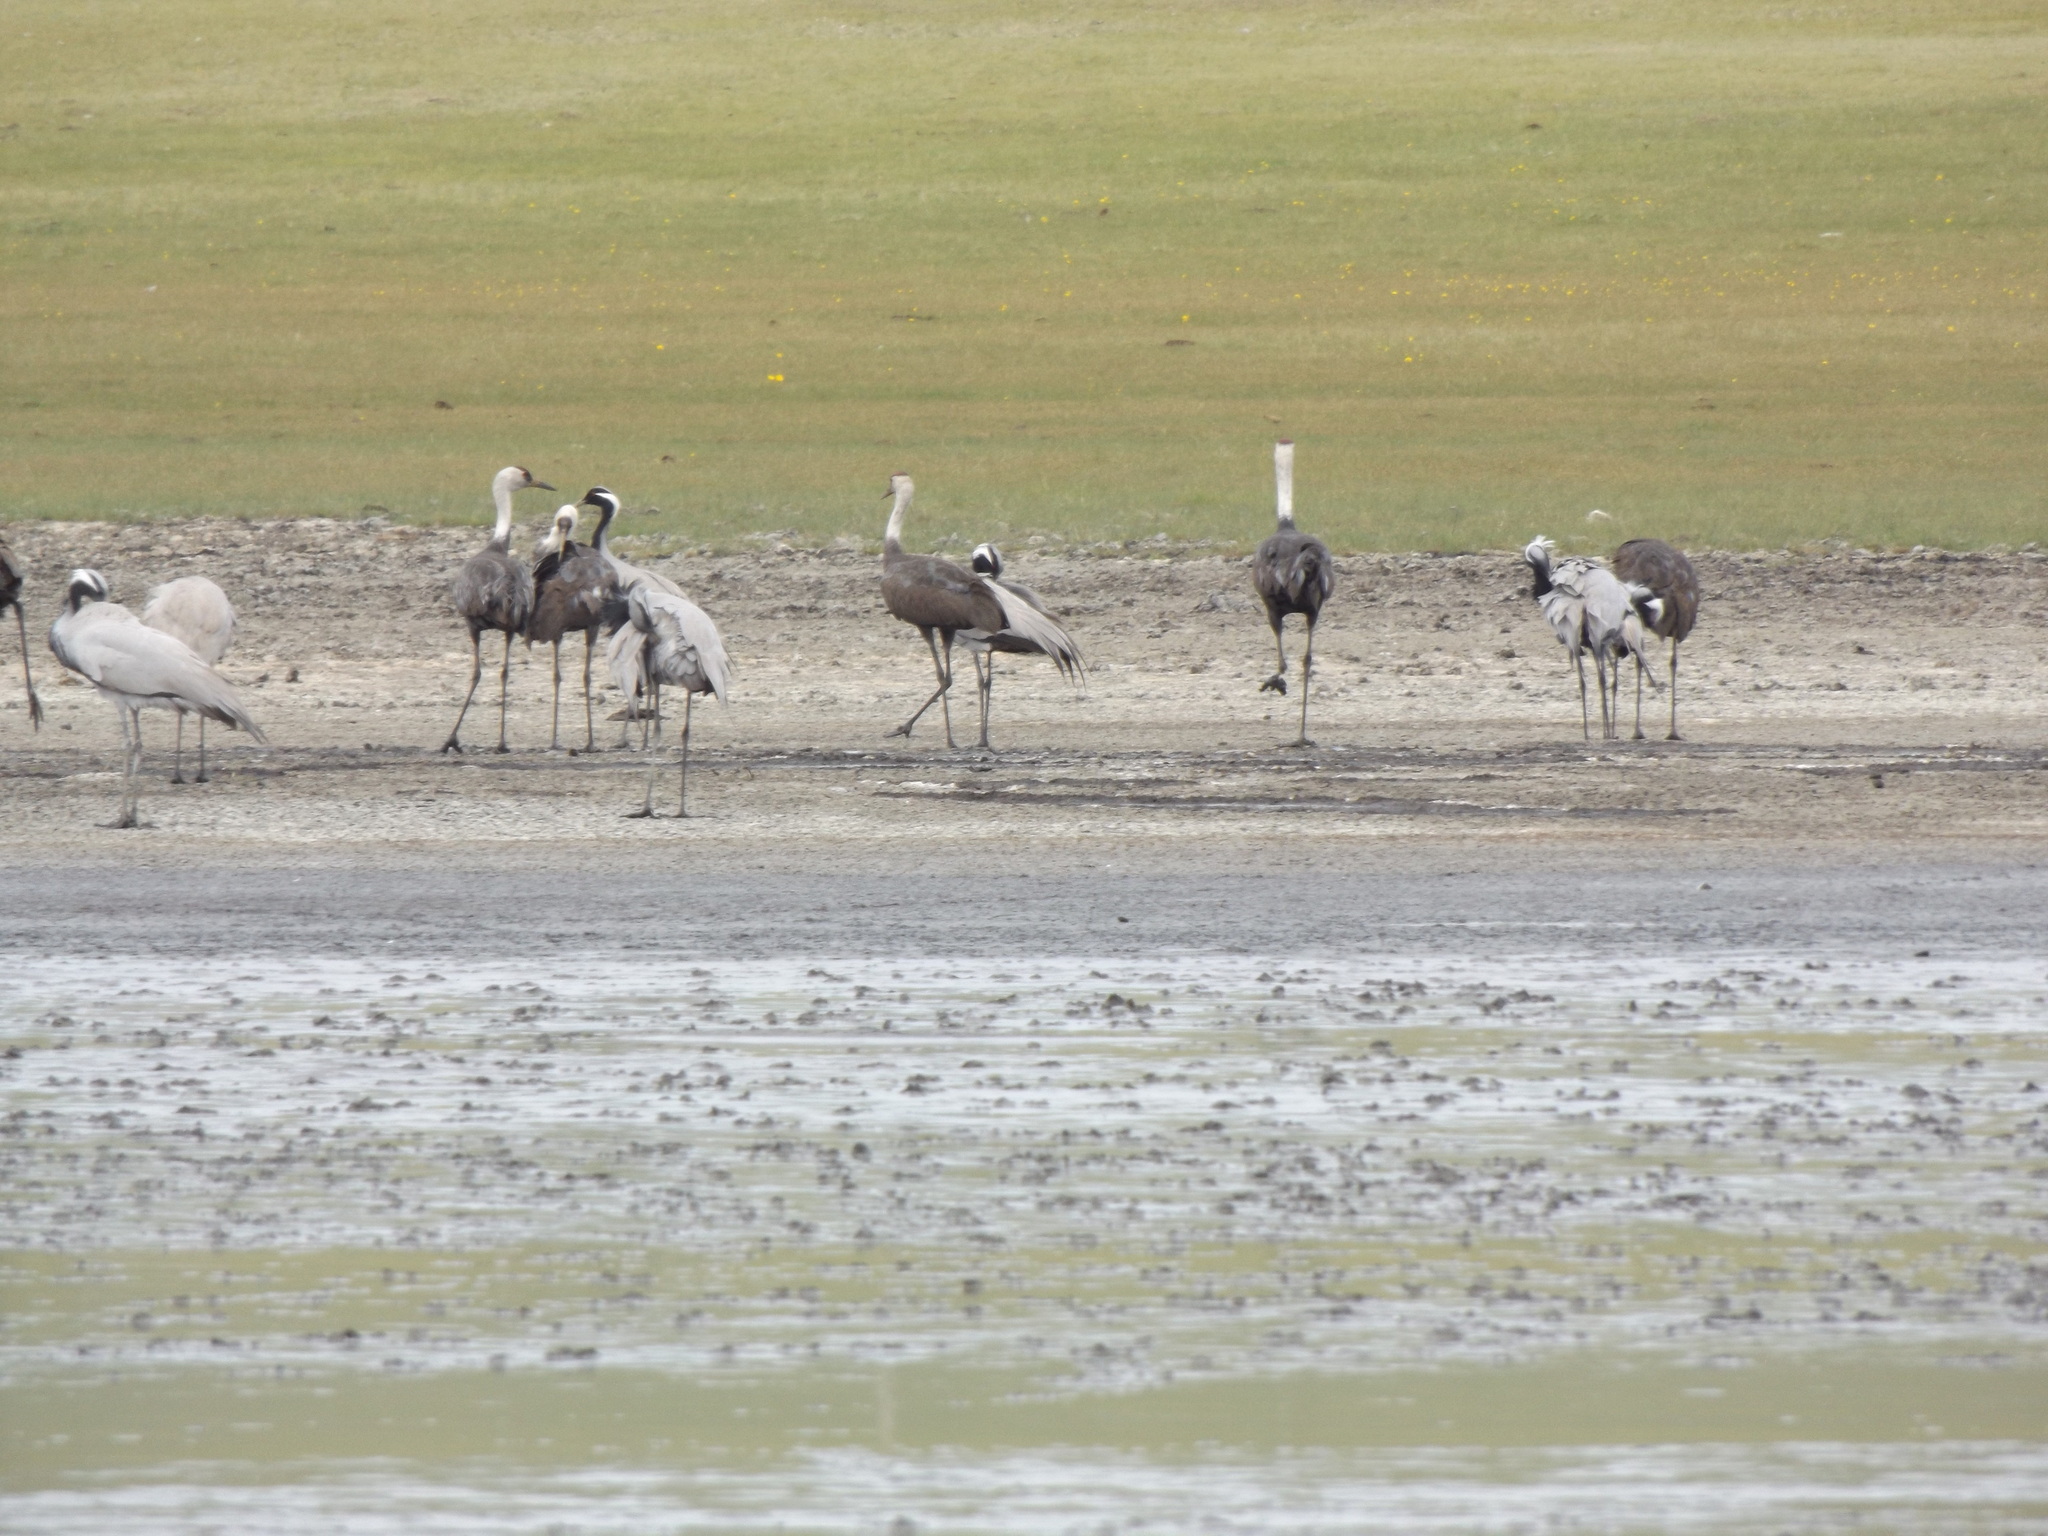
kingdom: Animalia
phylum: Chordata
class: Aves
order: Gruiformes
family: Gruidae
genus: Grus
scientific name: Grus monacha
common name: Hooded crane
